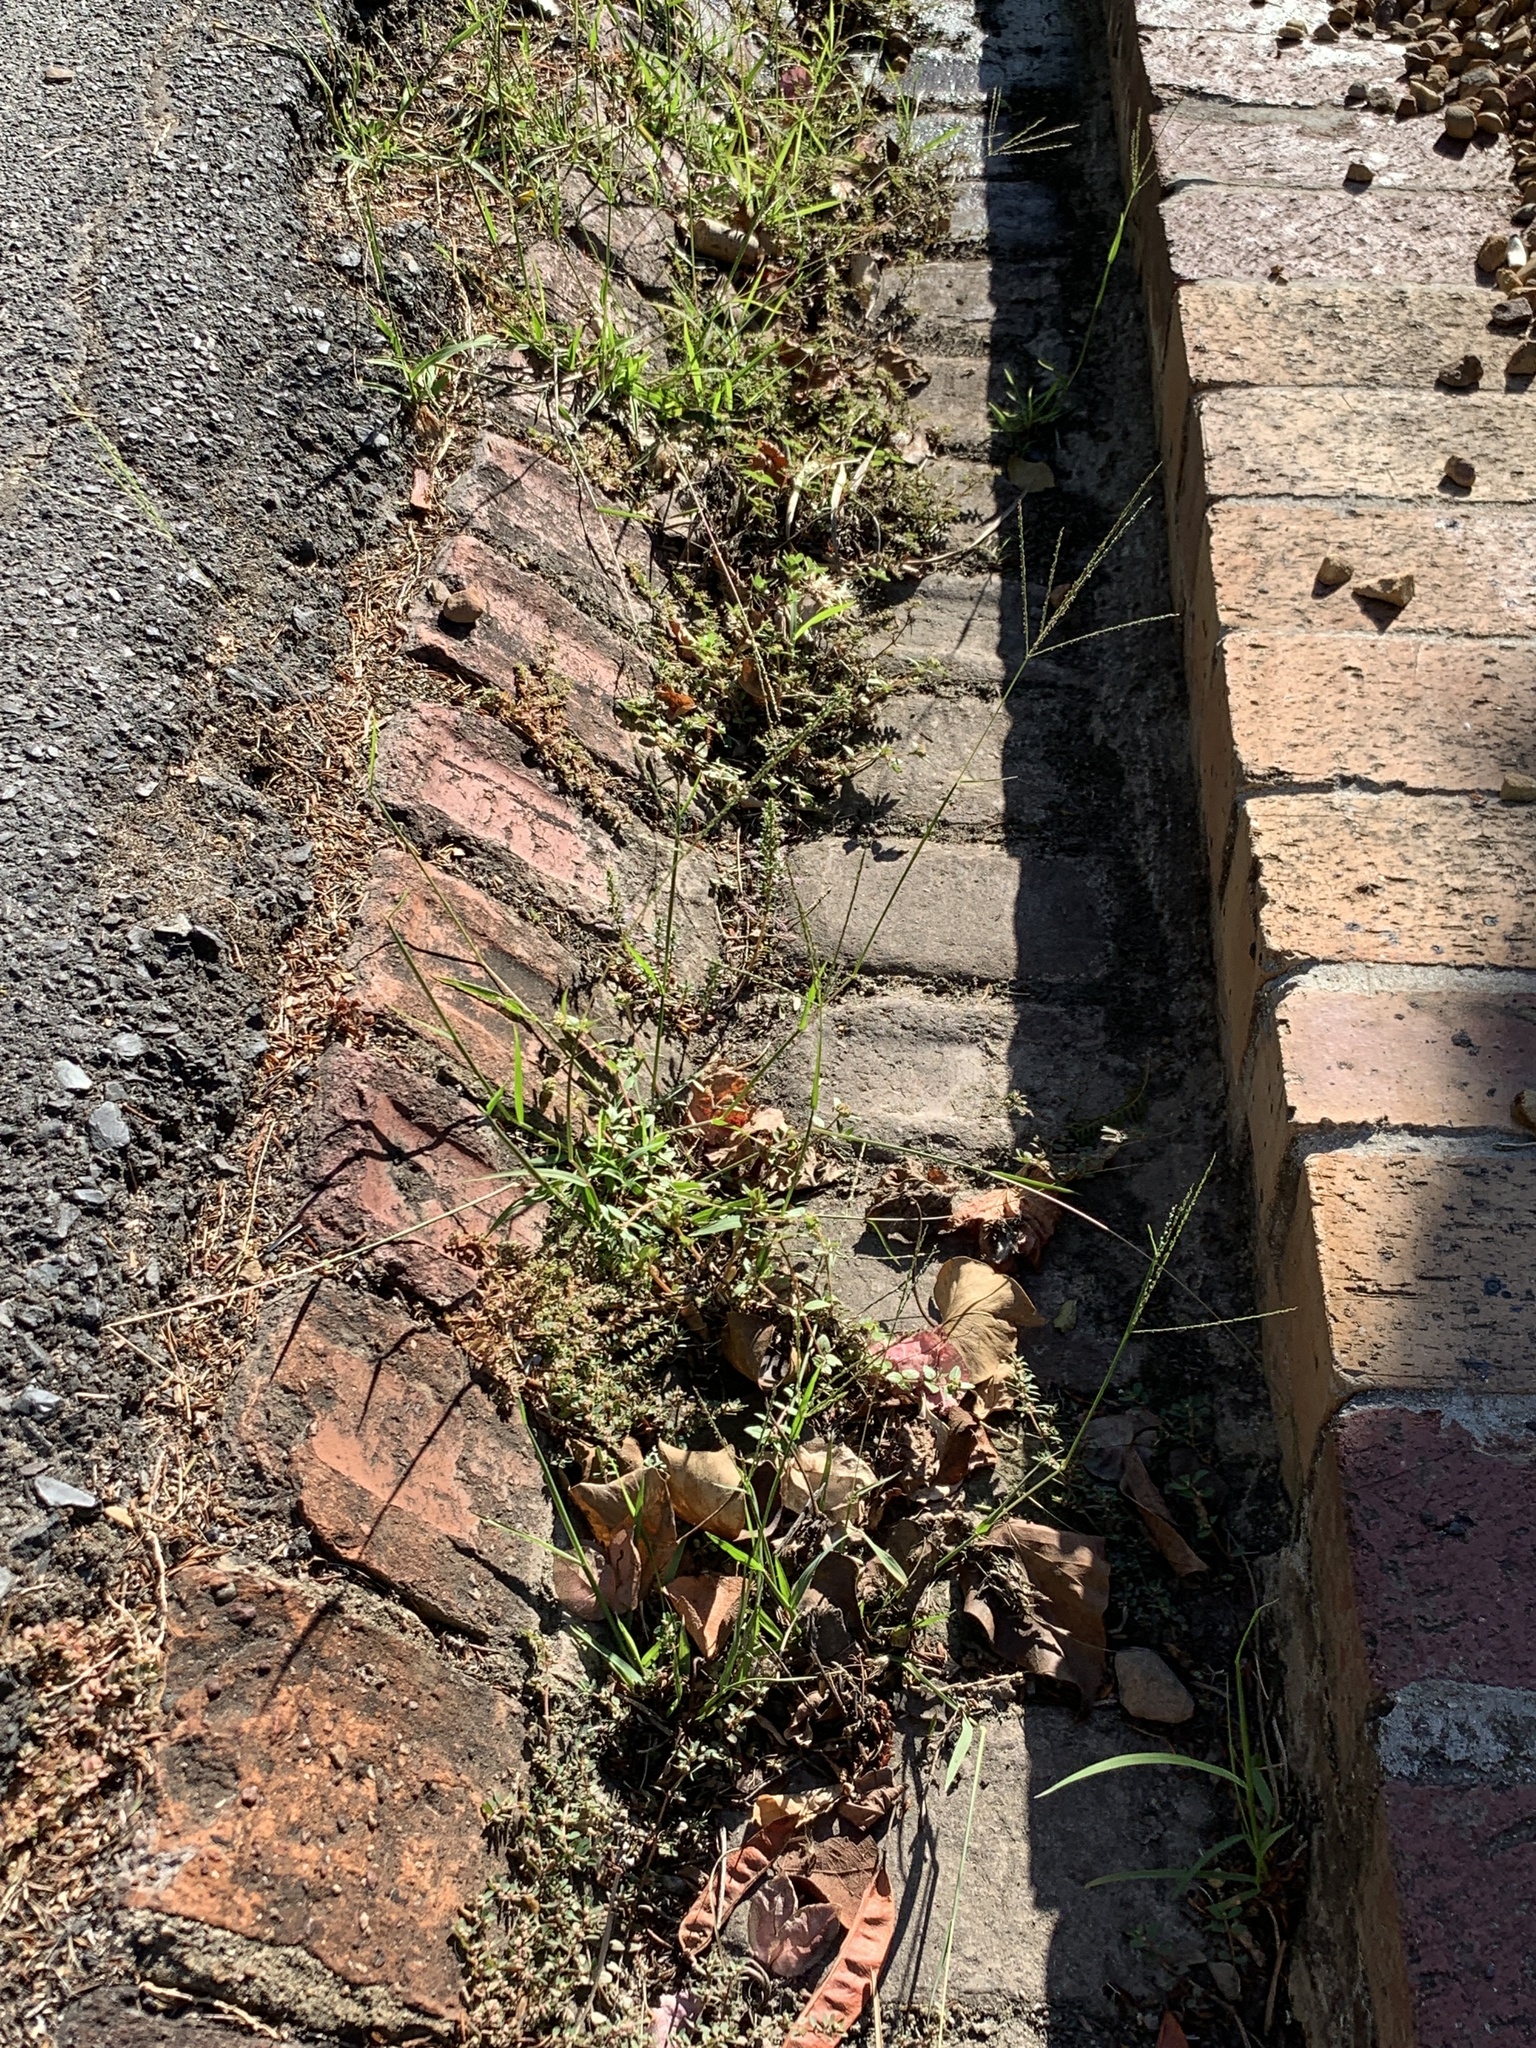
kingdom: Plantae
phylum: Tracheophyta
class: Liliopsida
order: Poales
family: Poaceae
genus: Digitaria
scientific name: Digitaria sanguinalis
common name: Hairy crabgrass
